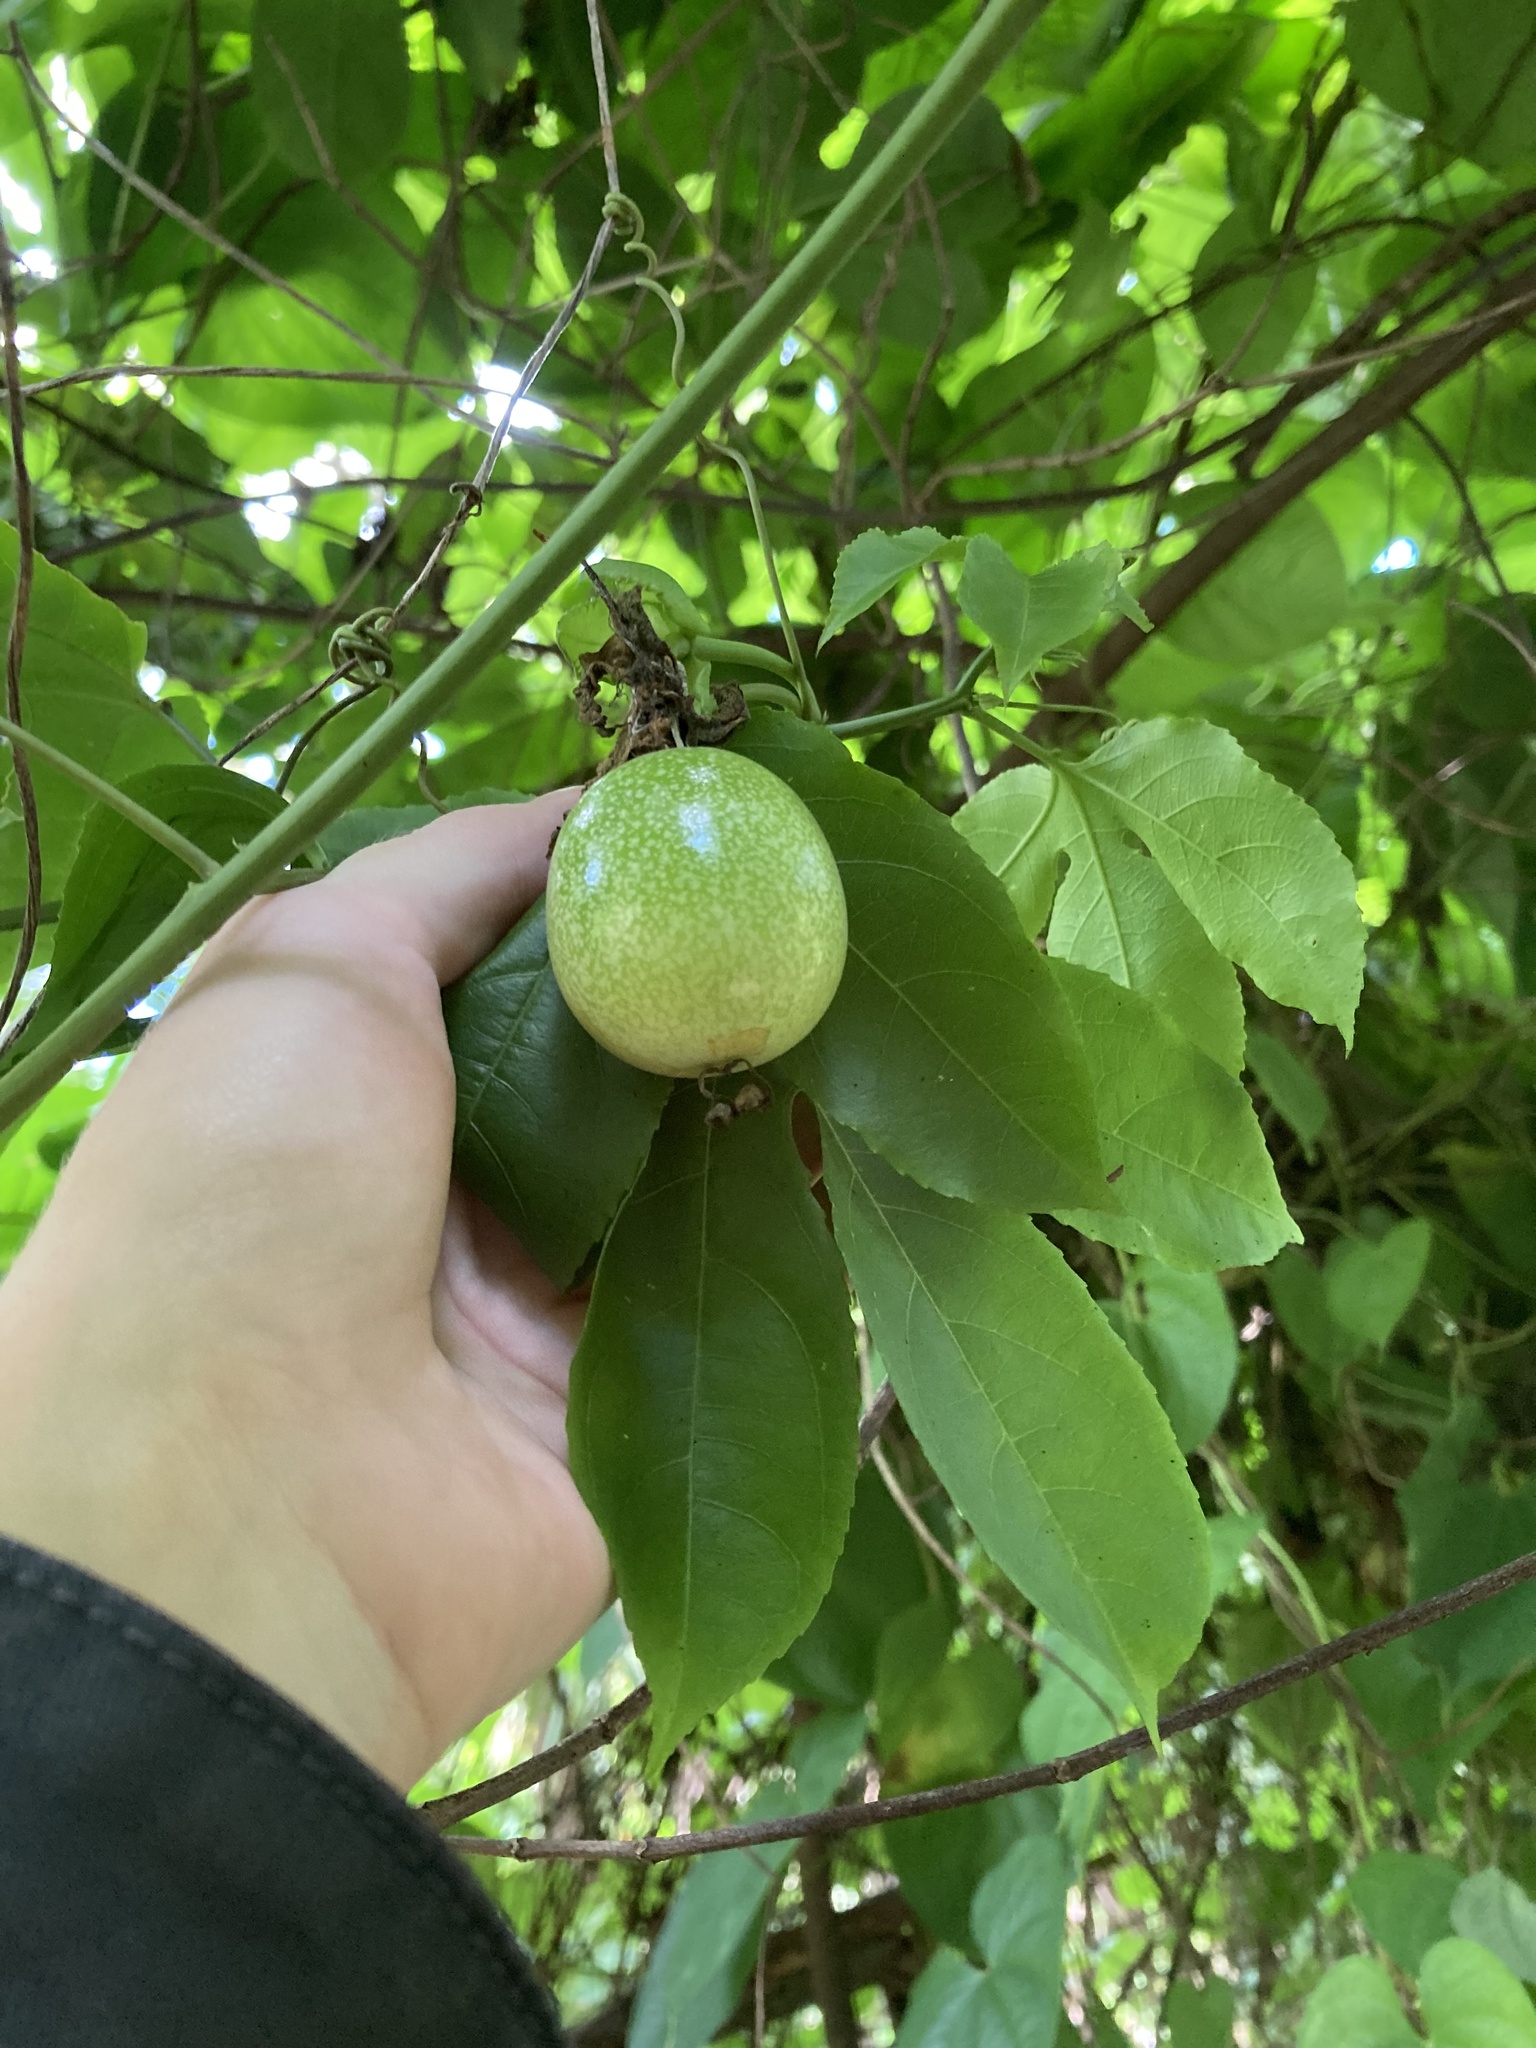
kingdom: Plantae
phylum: Tracheophyta
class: Magnoliopsida
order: Malpighiales
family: Passifloraceae
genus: Passiflora
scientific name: Passiflora edulis
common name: Purple granadilla
